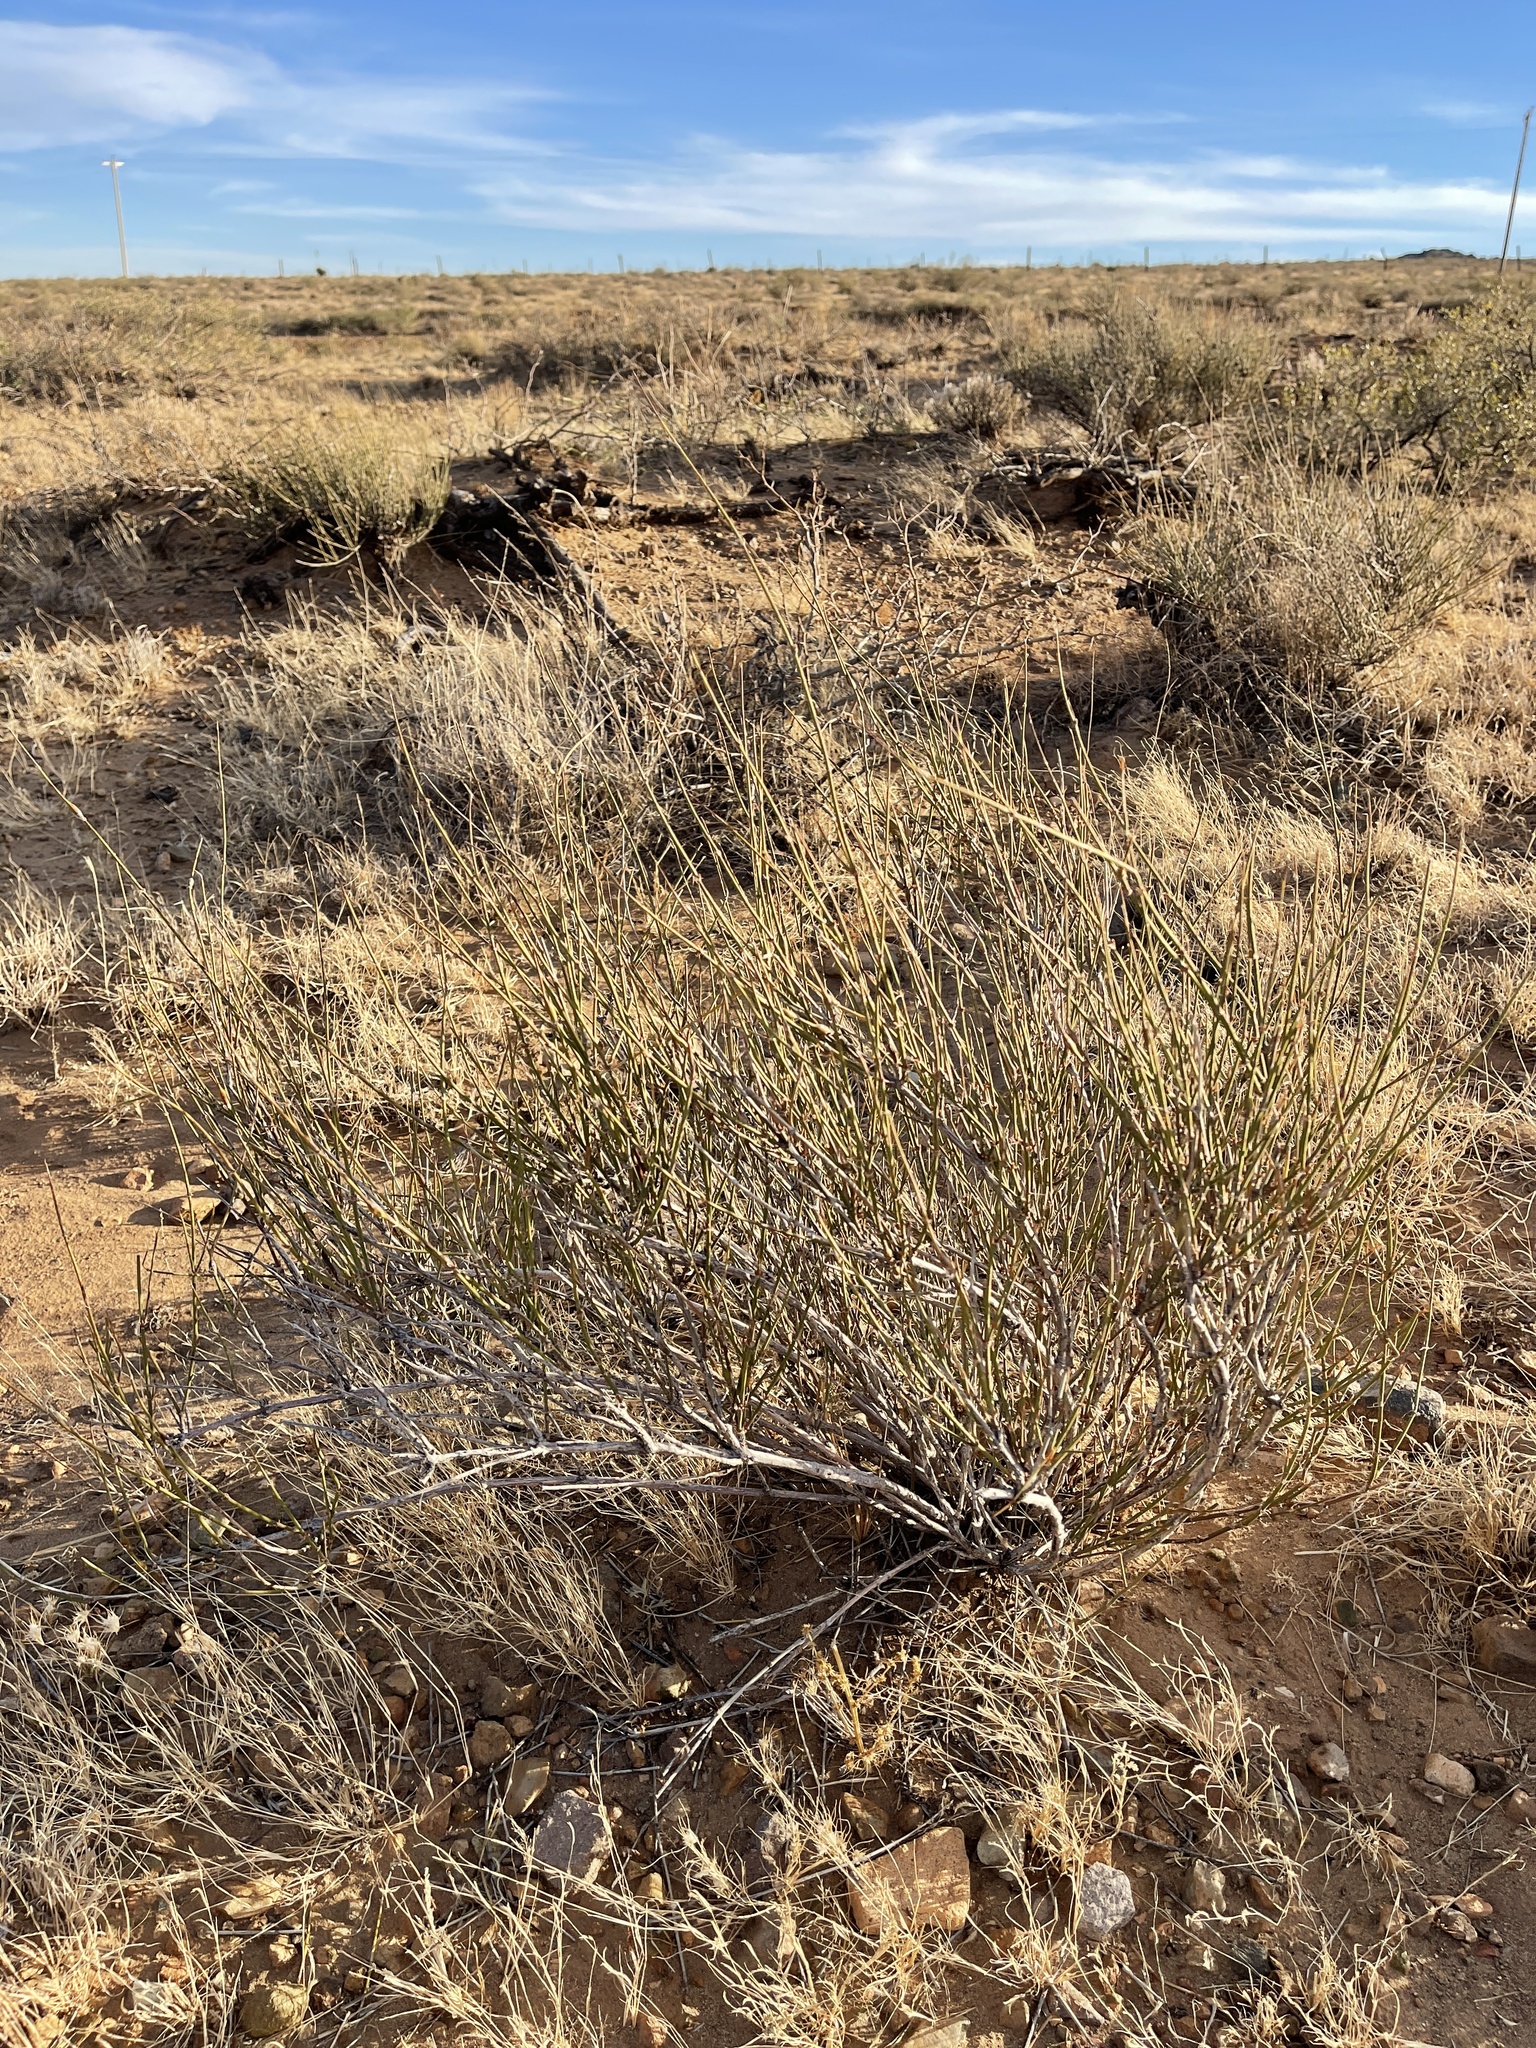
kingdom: Plantae
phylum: Tracheophyta
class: Gnetopsida
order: Ephedrales
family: Ephedraceae
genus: Ephedra
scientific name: Ephedra trifurca
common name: Mexican-tea
